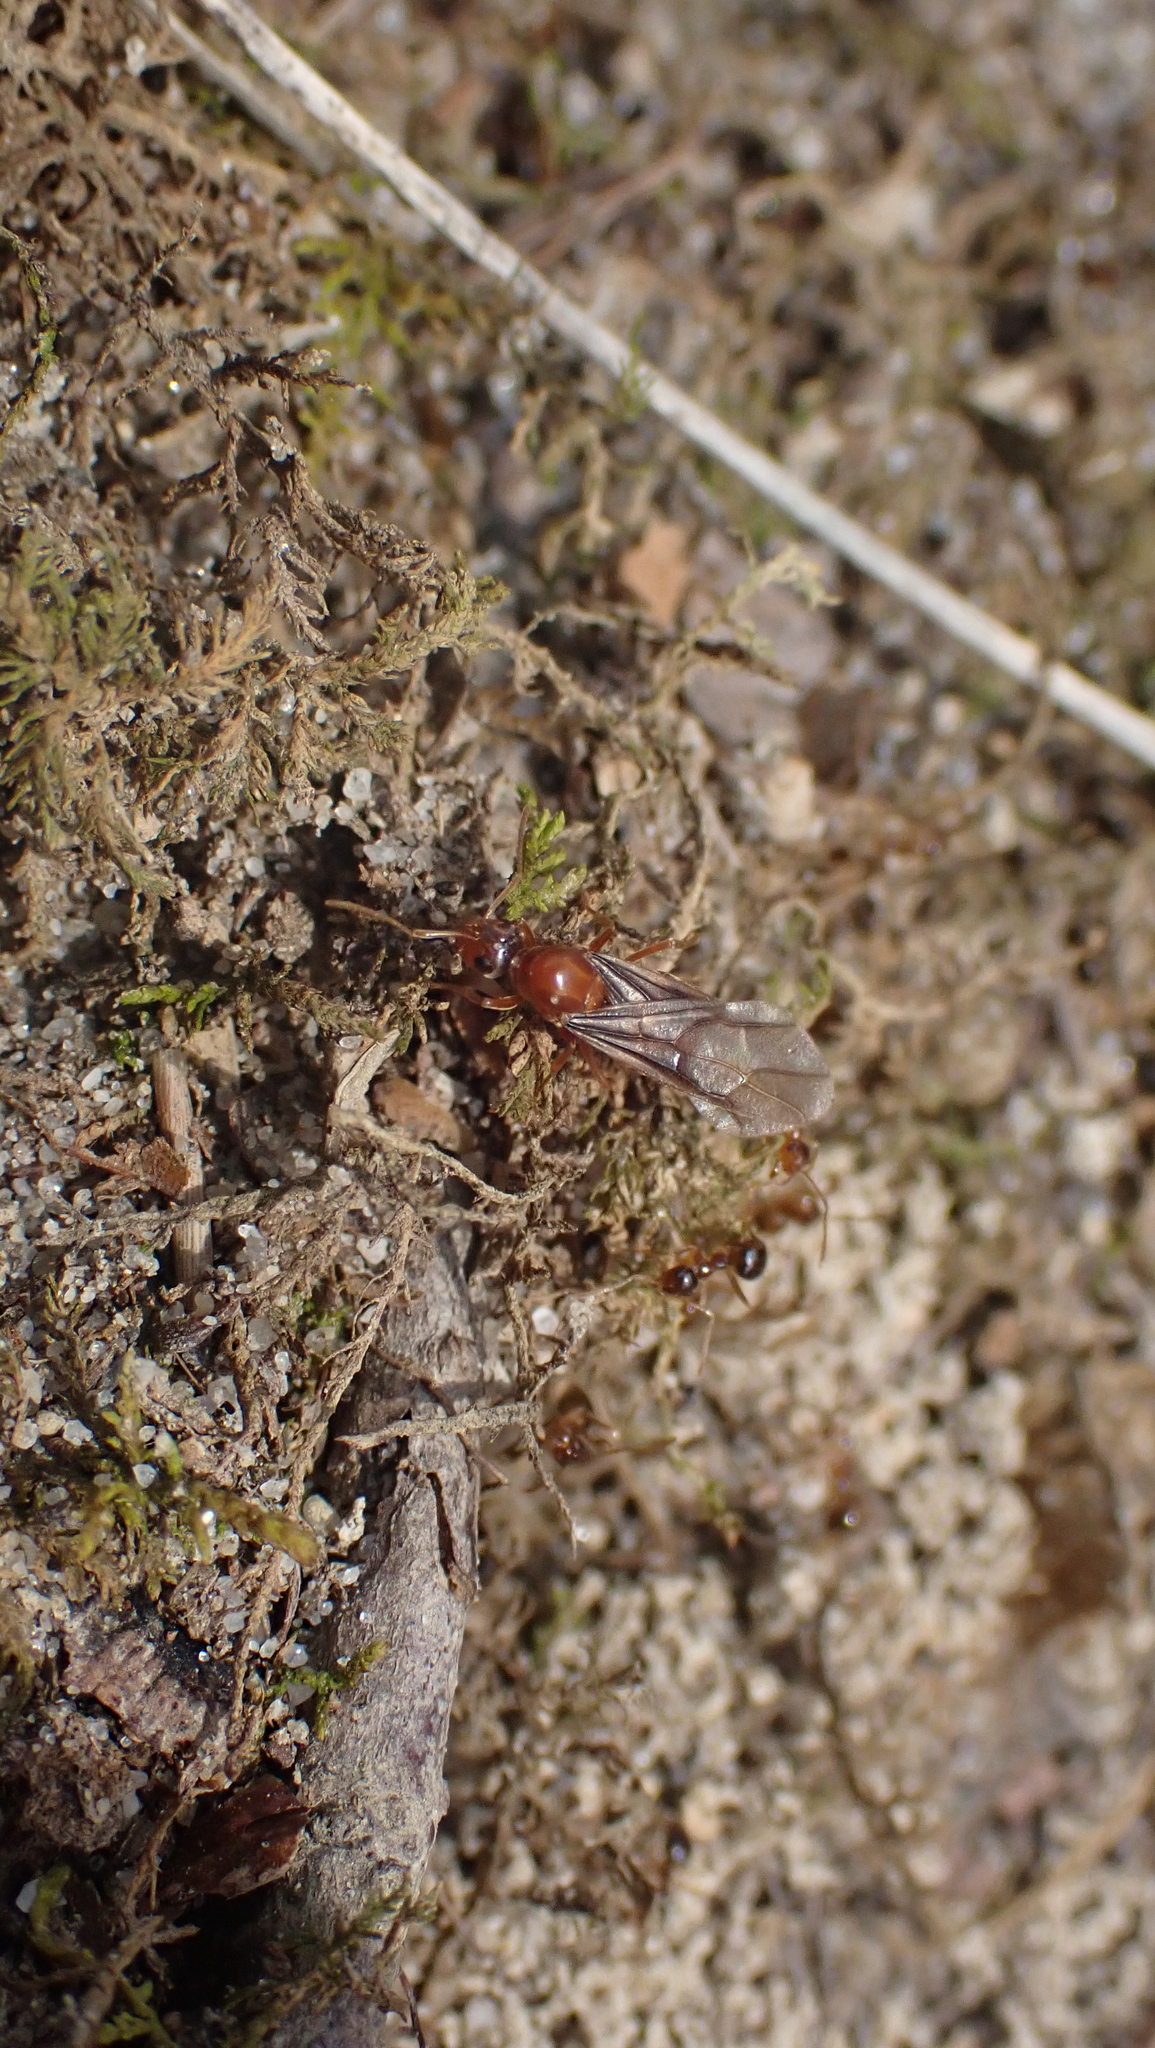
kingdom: Animalia
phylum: Arthropoda
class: Insecta
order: Hymenoptera
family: Formicidae
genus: Prenolepis
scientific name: Prenolepis imparis
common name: Small honey ant
